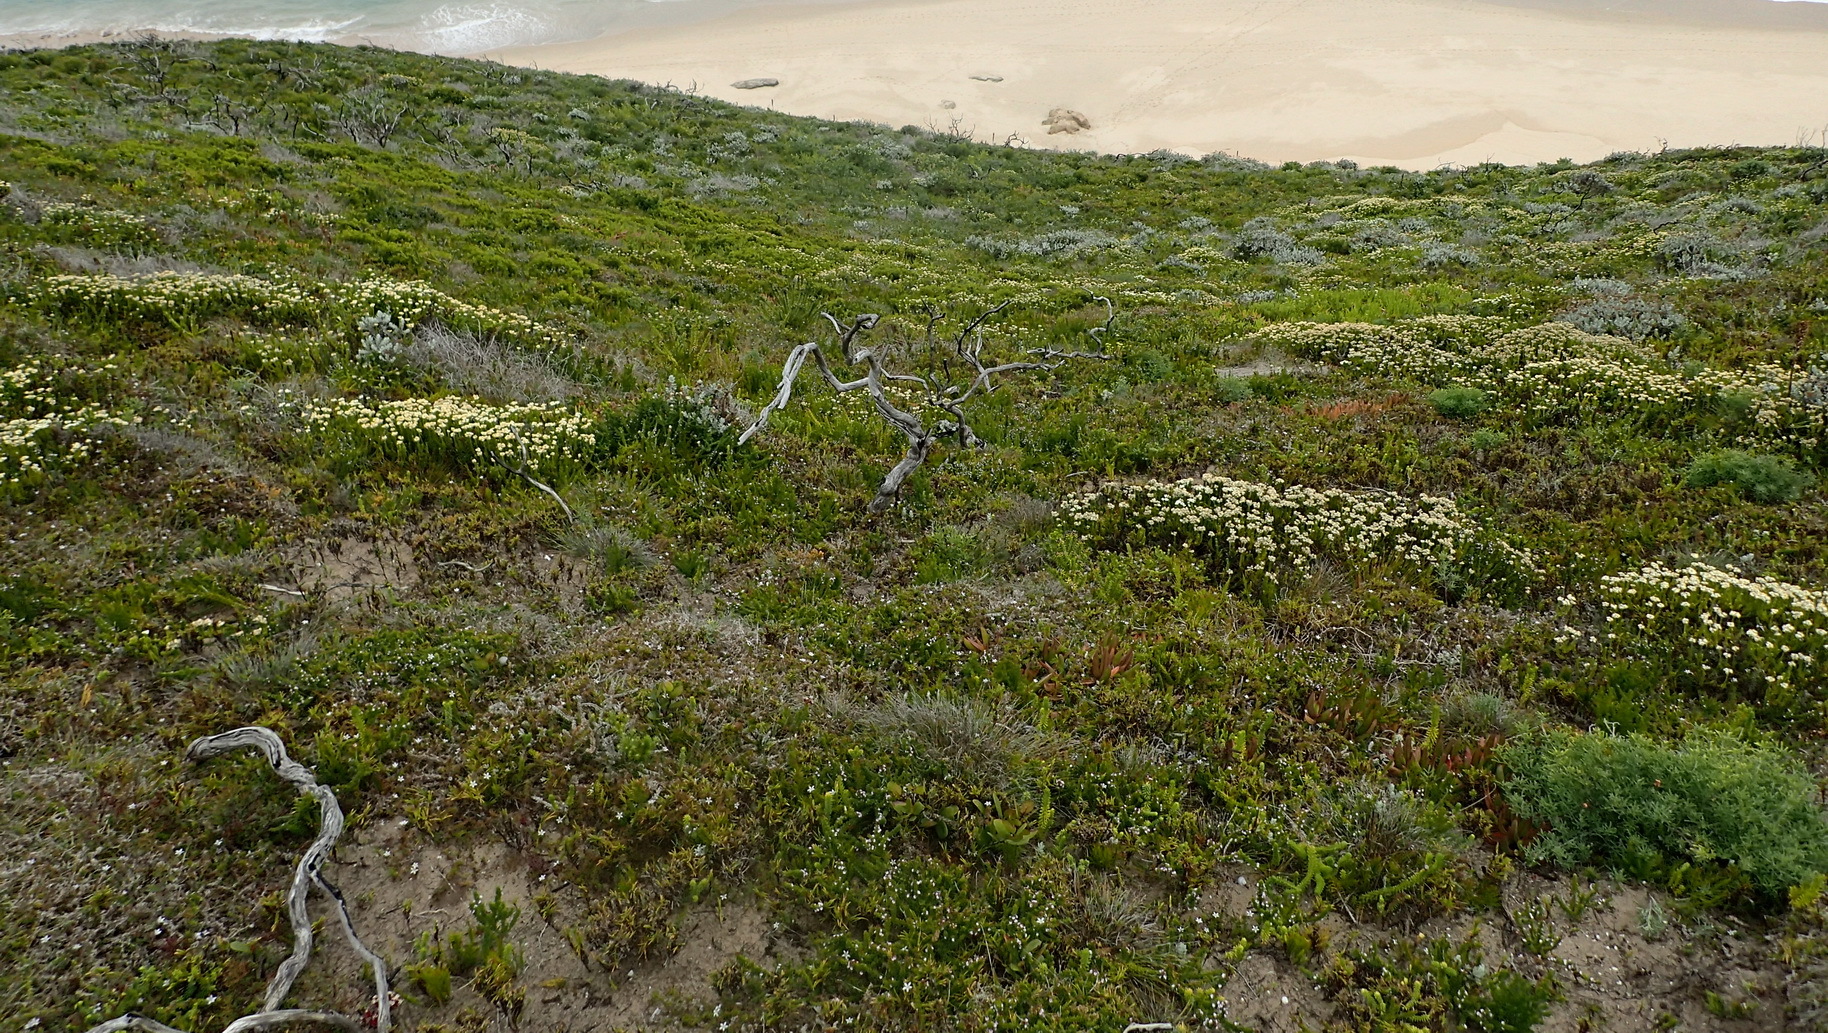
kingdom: Plantae
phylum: Tracheophyta
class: Liliopsida
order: Asparagales
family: Orchidaceae
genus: Satyrium
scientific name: Satyrium princeps
